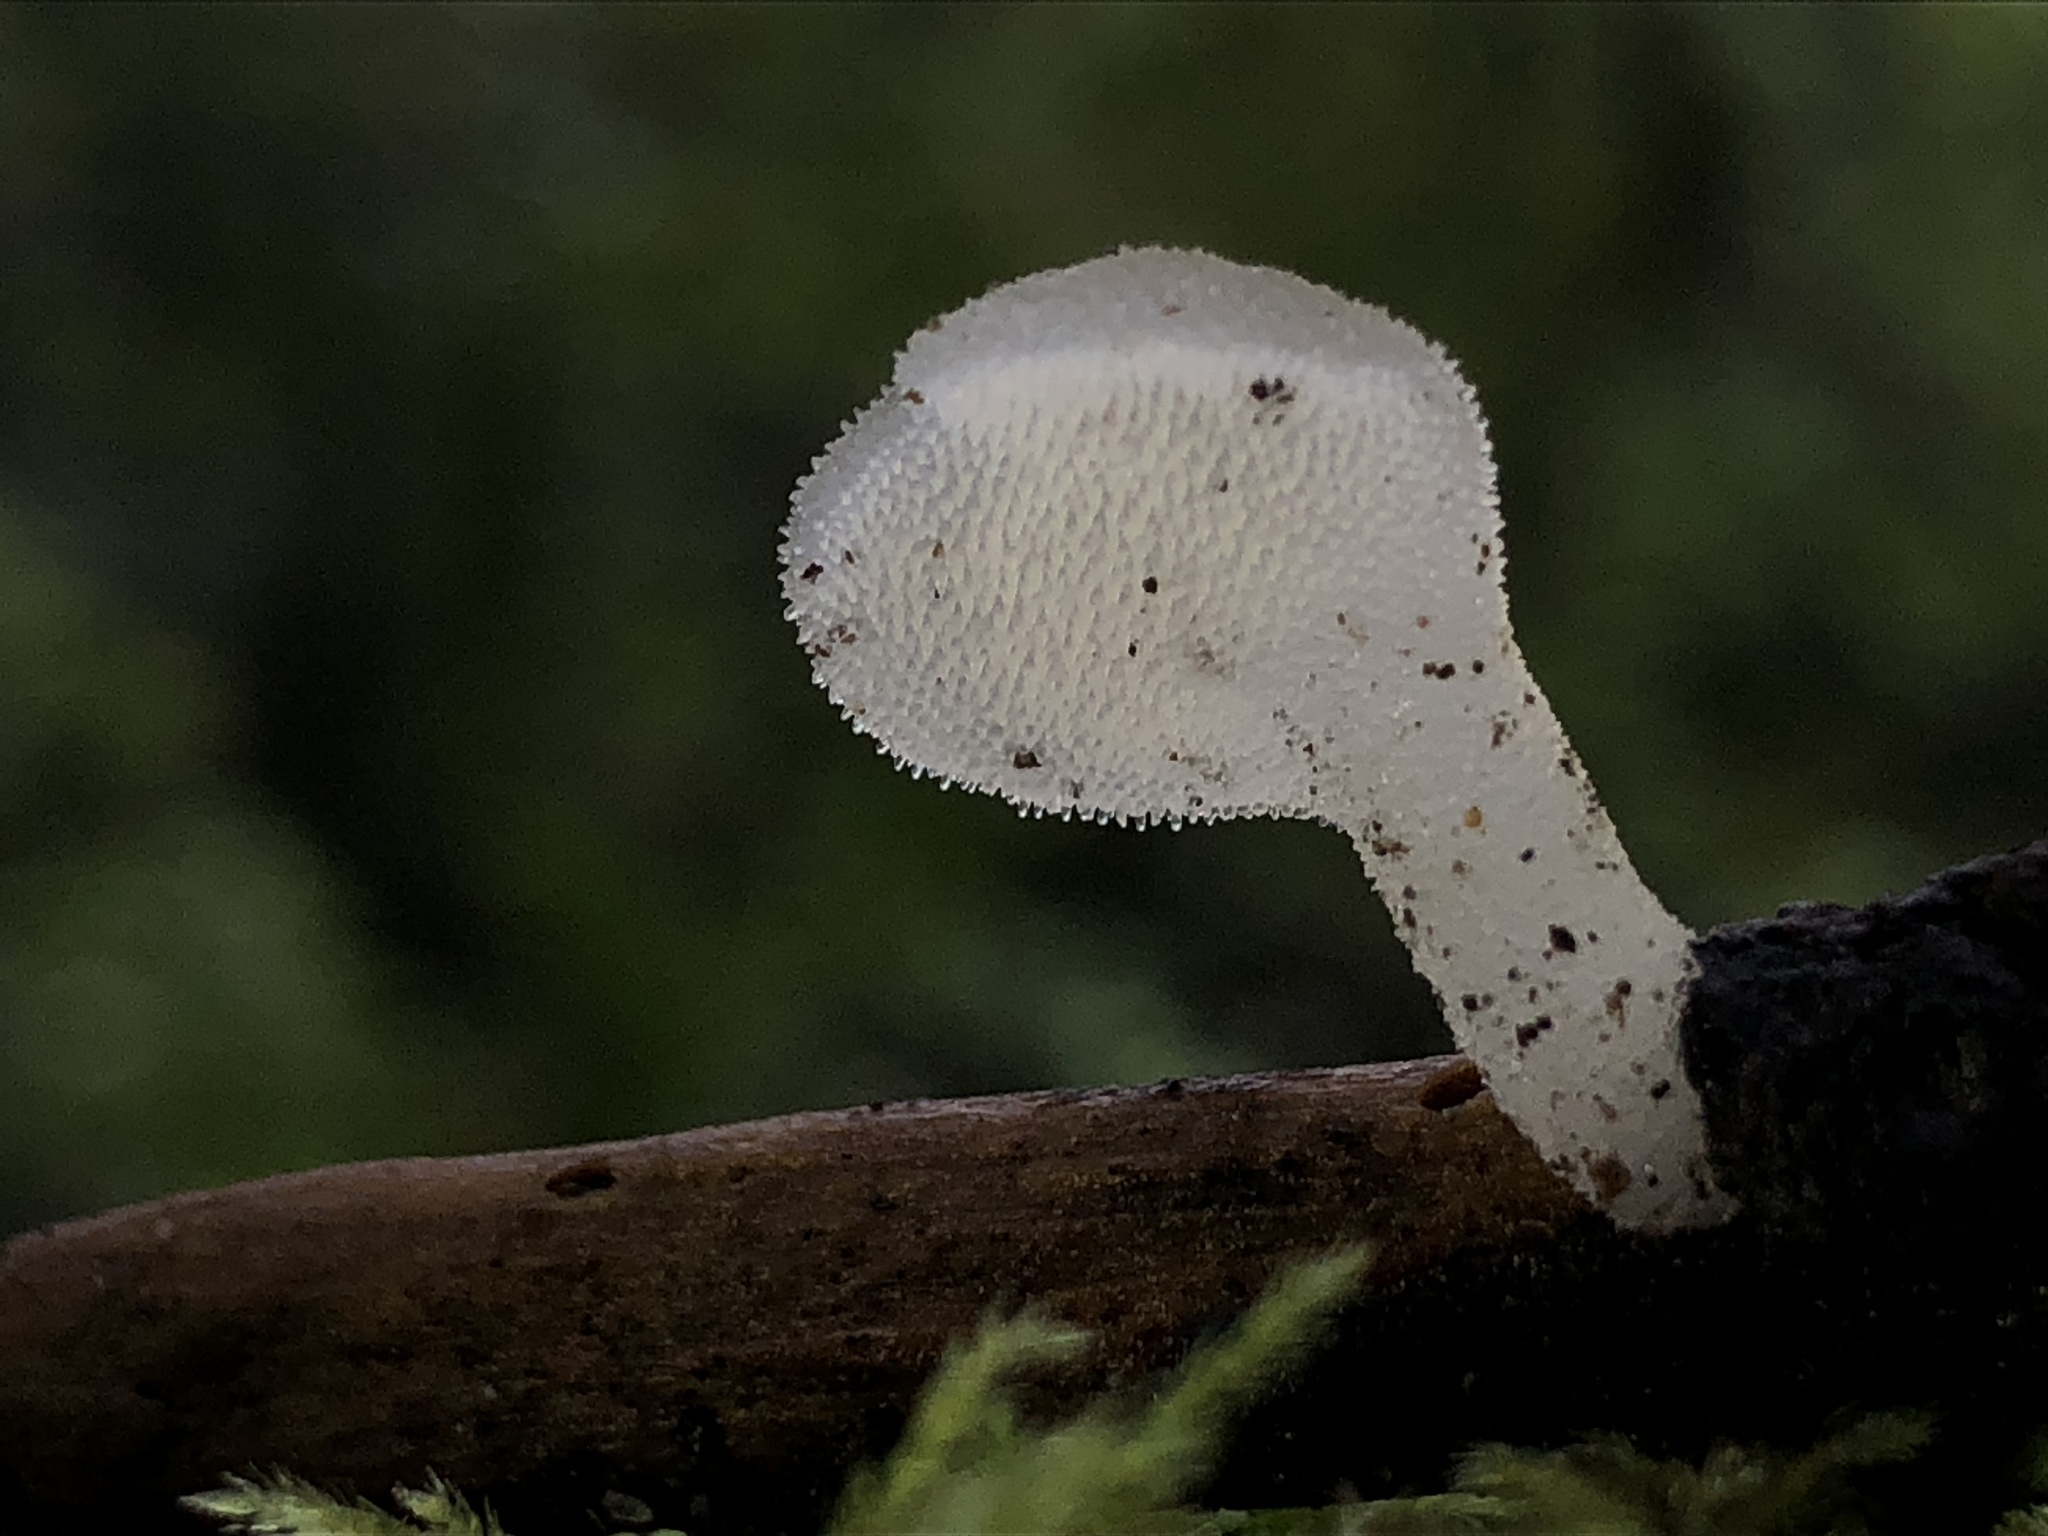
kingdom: Fungi
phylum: Basidiomycota
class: Agaricomycetes
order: Auriculariales
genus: Pseudohydnum
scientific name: Pseudohydnum gelatinosum
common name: Jelly tongue
